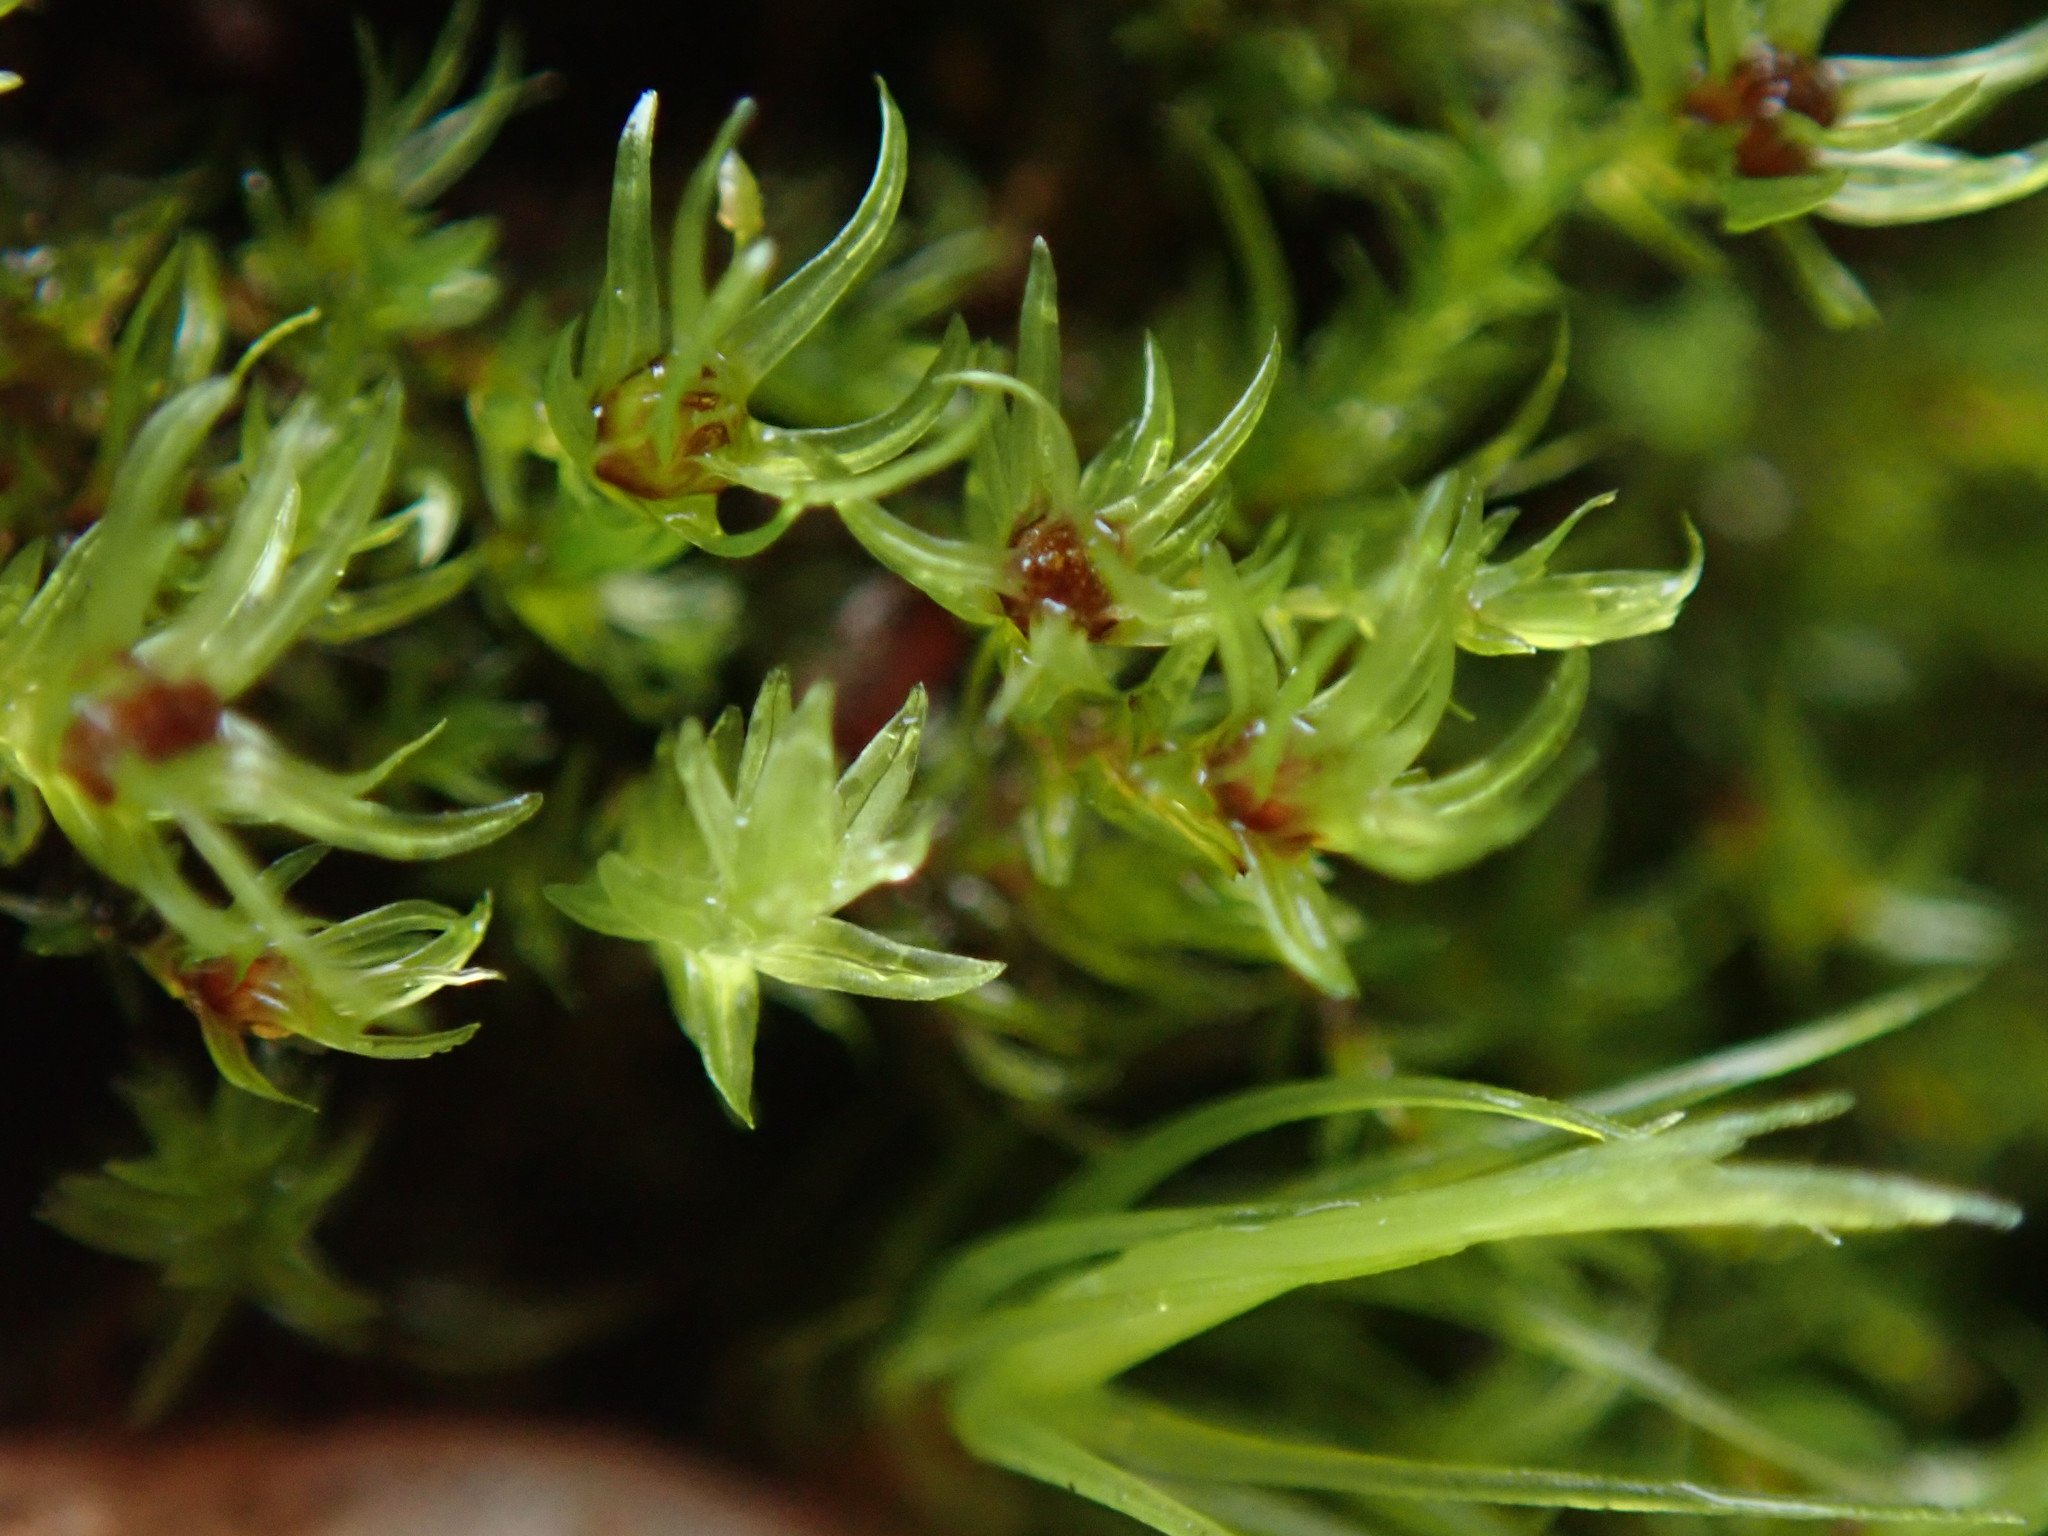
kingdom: Plantae
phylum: Bryophyta
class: Bryopsida
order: Aulacomniales
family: Aulacomniaceae
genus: Aulacomnium
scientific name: Aulacomnium androgynum
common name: Little groove moss
